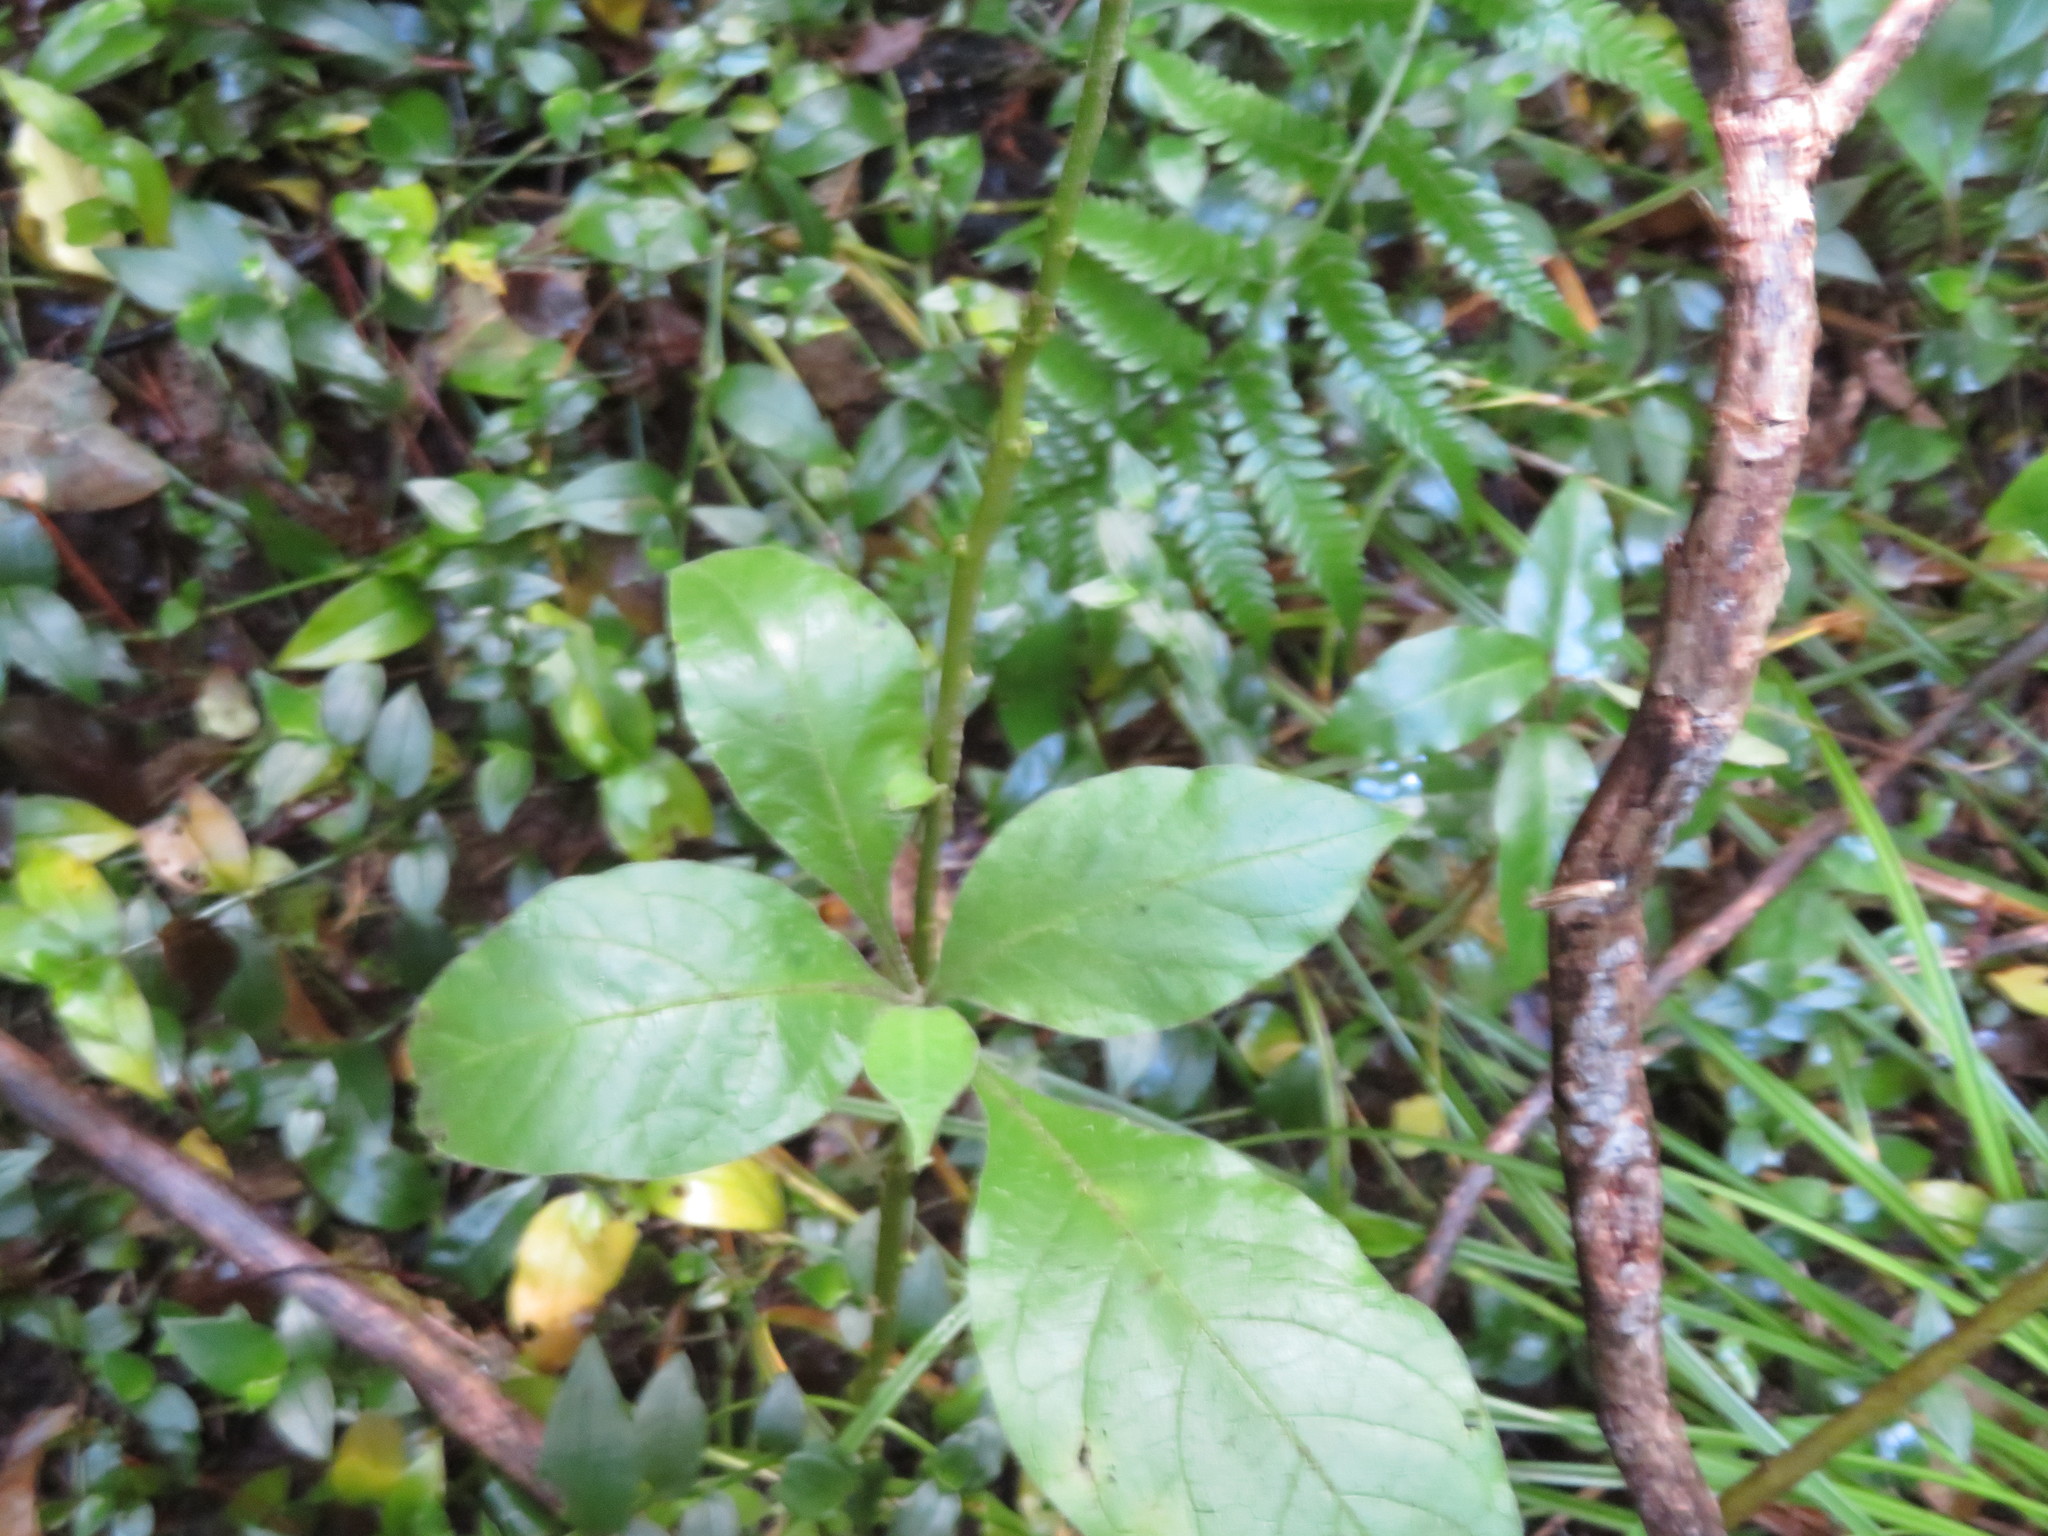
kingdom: Plantae
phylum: Tracheophyta
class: Magnoliopsida
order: Gentianales
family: Rubiaceae
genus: Coprosma
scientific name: Coprosma autumnalis
